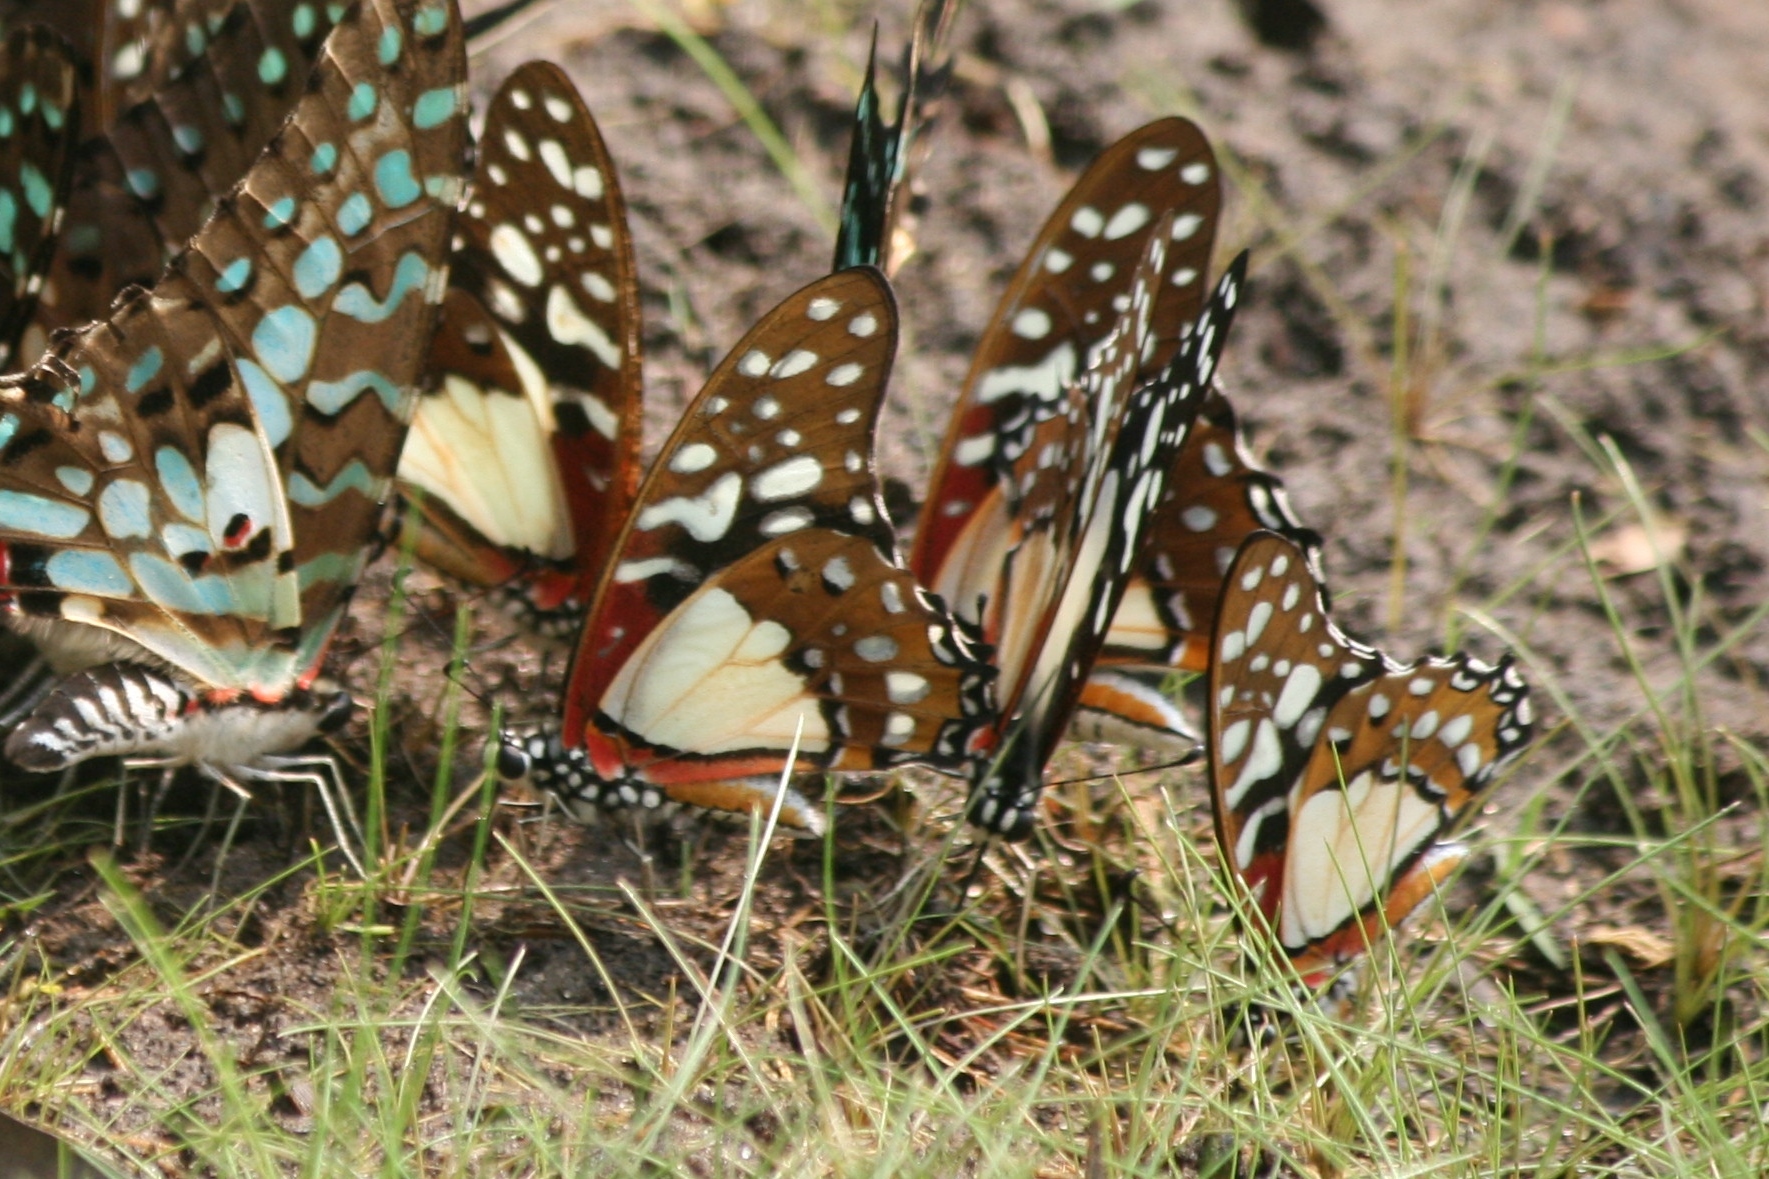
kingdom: Animalia
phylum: Arthropoda
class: Insecta
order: Lepidoptera
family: Papilionidae
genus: Graphium
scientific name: Graphium angolanus
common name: Angola white-lady swordtail
